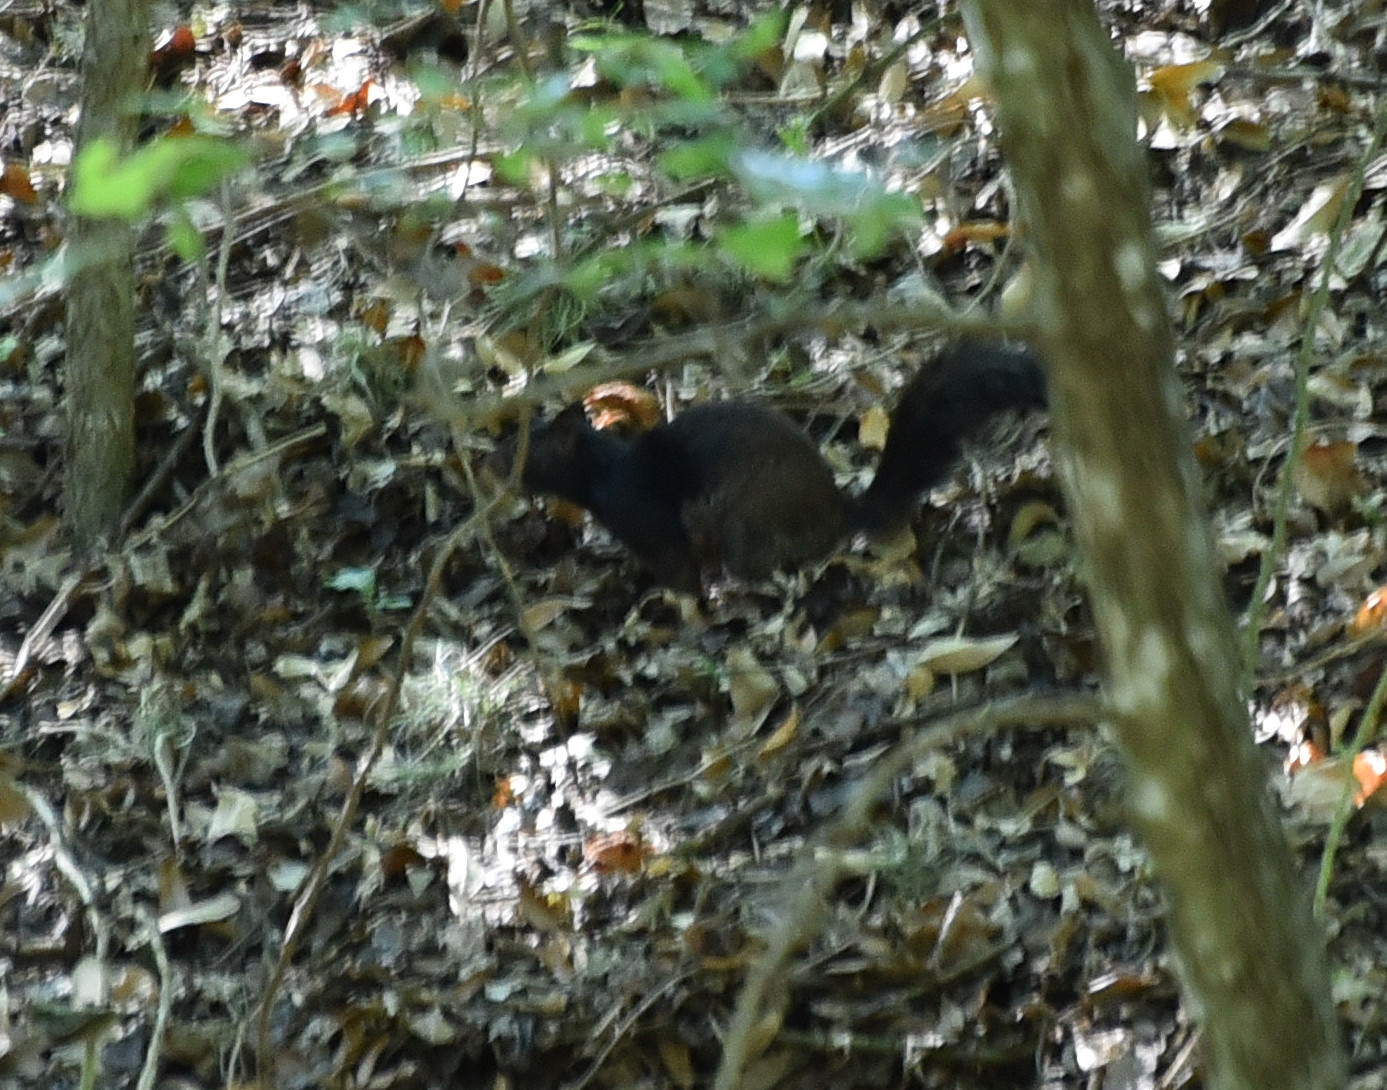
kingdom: Animalia
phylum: Chordata
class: Mammalia
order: Rodentia
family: Sciuridae
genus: Otospermophilus
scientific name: Otospermophilus variegatus
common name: Rock squirrel
